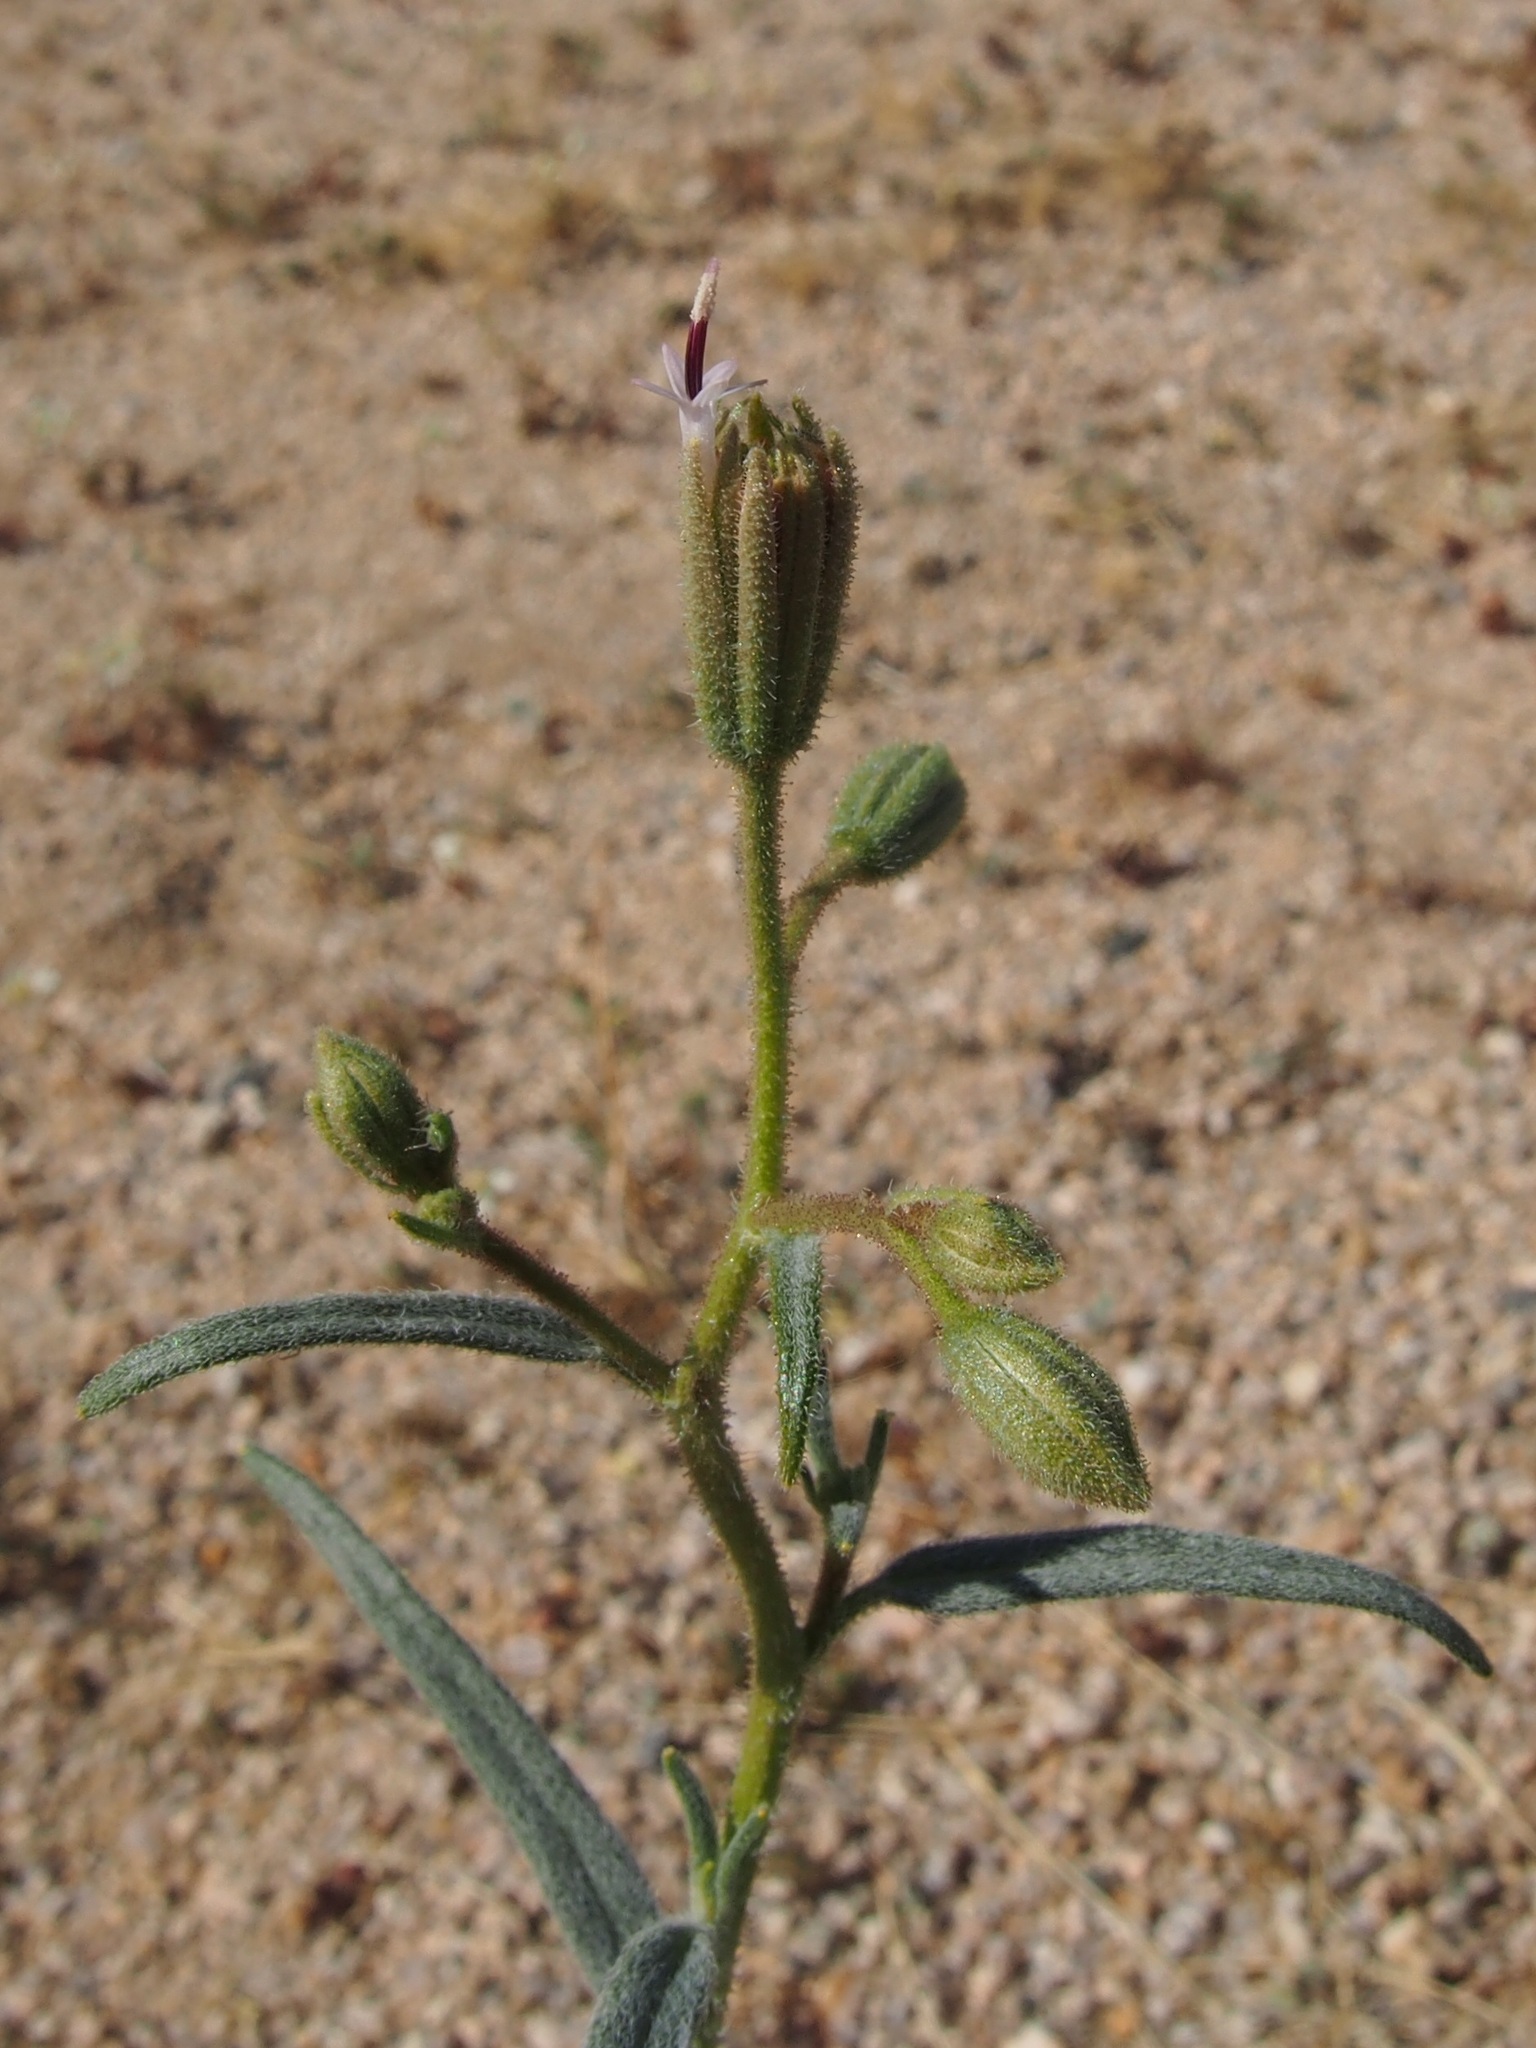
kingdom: Plantae
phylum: Tracheophyta
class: Magnoliopsida
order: Asterales
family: Asteraceae
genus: Palafoxia
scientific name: Palafoxia arida
